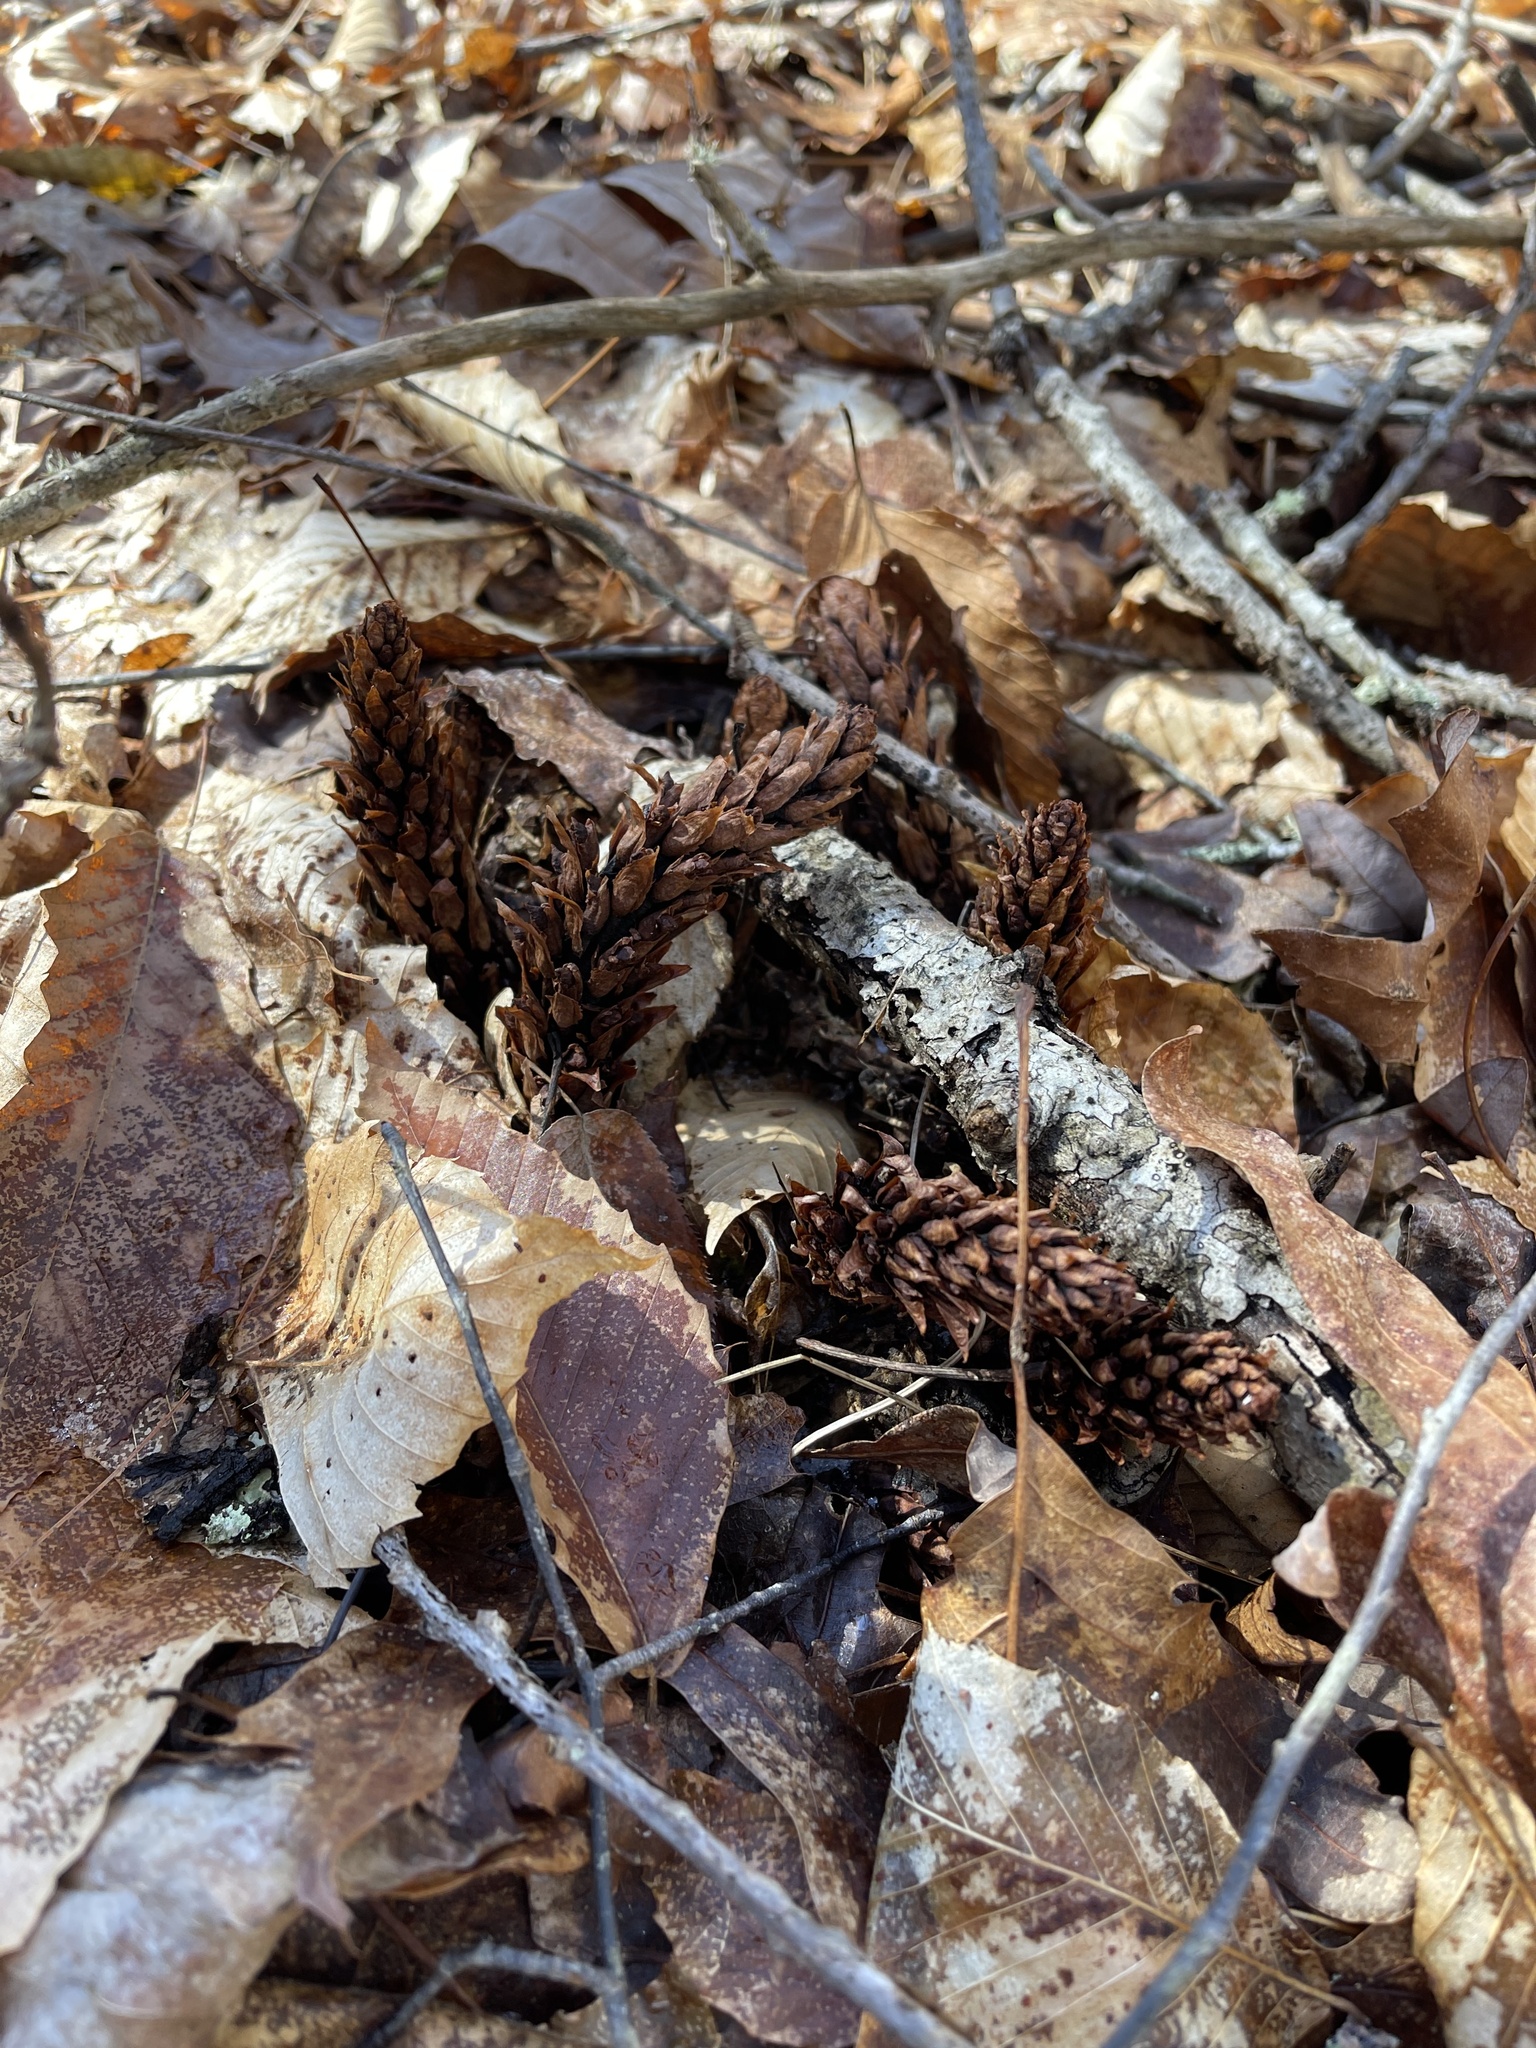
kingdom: Plantae
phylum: Tracheophyta
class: Magnoliopsida
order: Lamiales
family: Orobanchaceae
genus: Conopholis
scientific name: Conopholis americana
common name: American cancer-root
